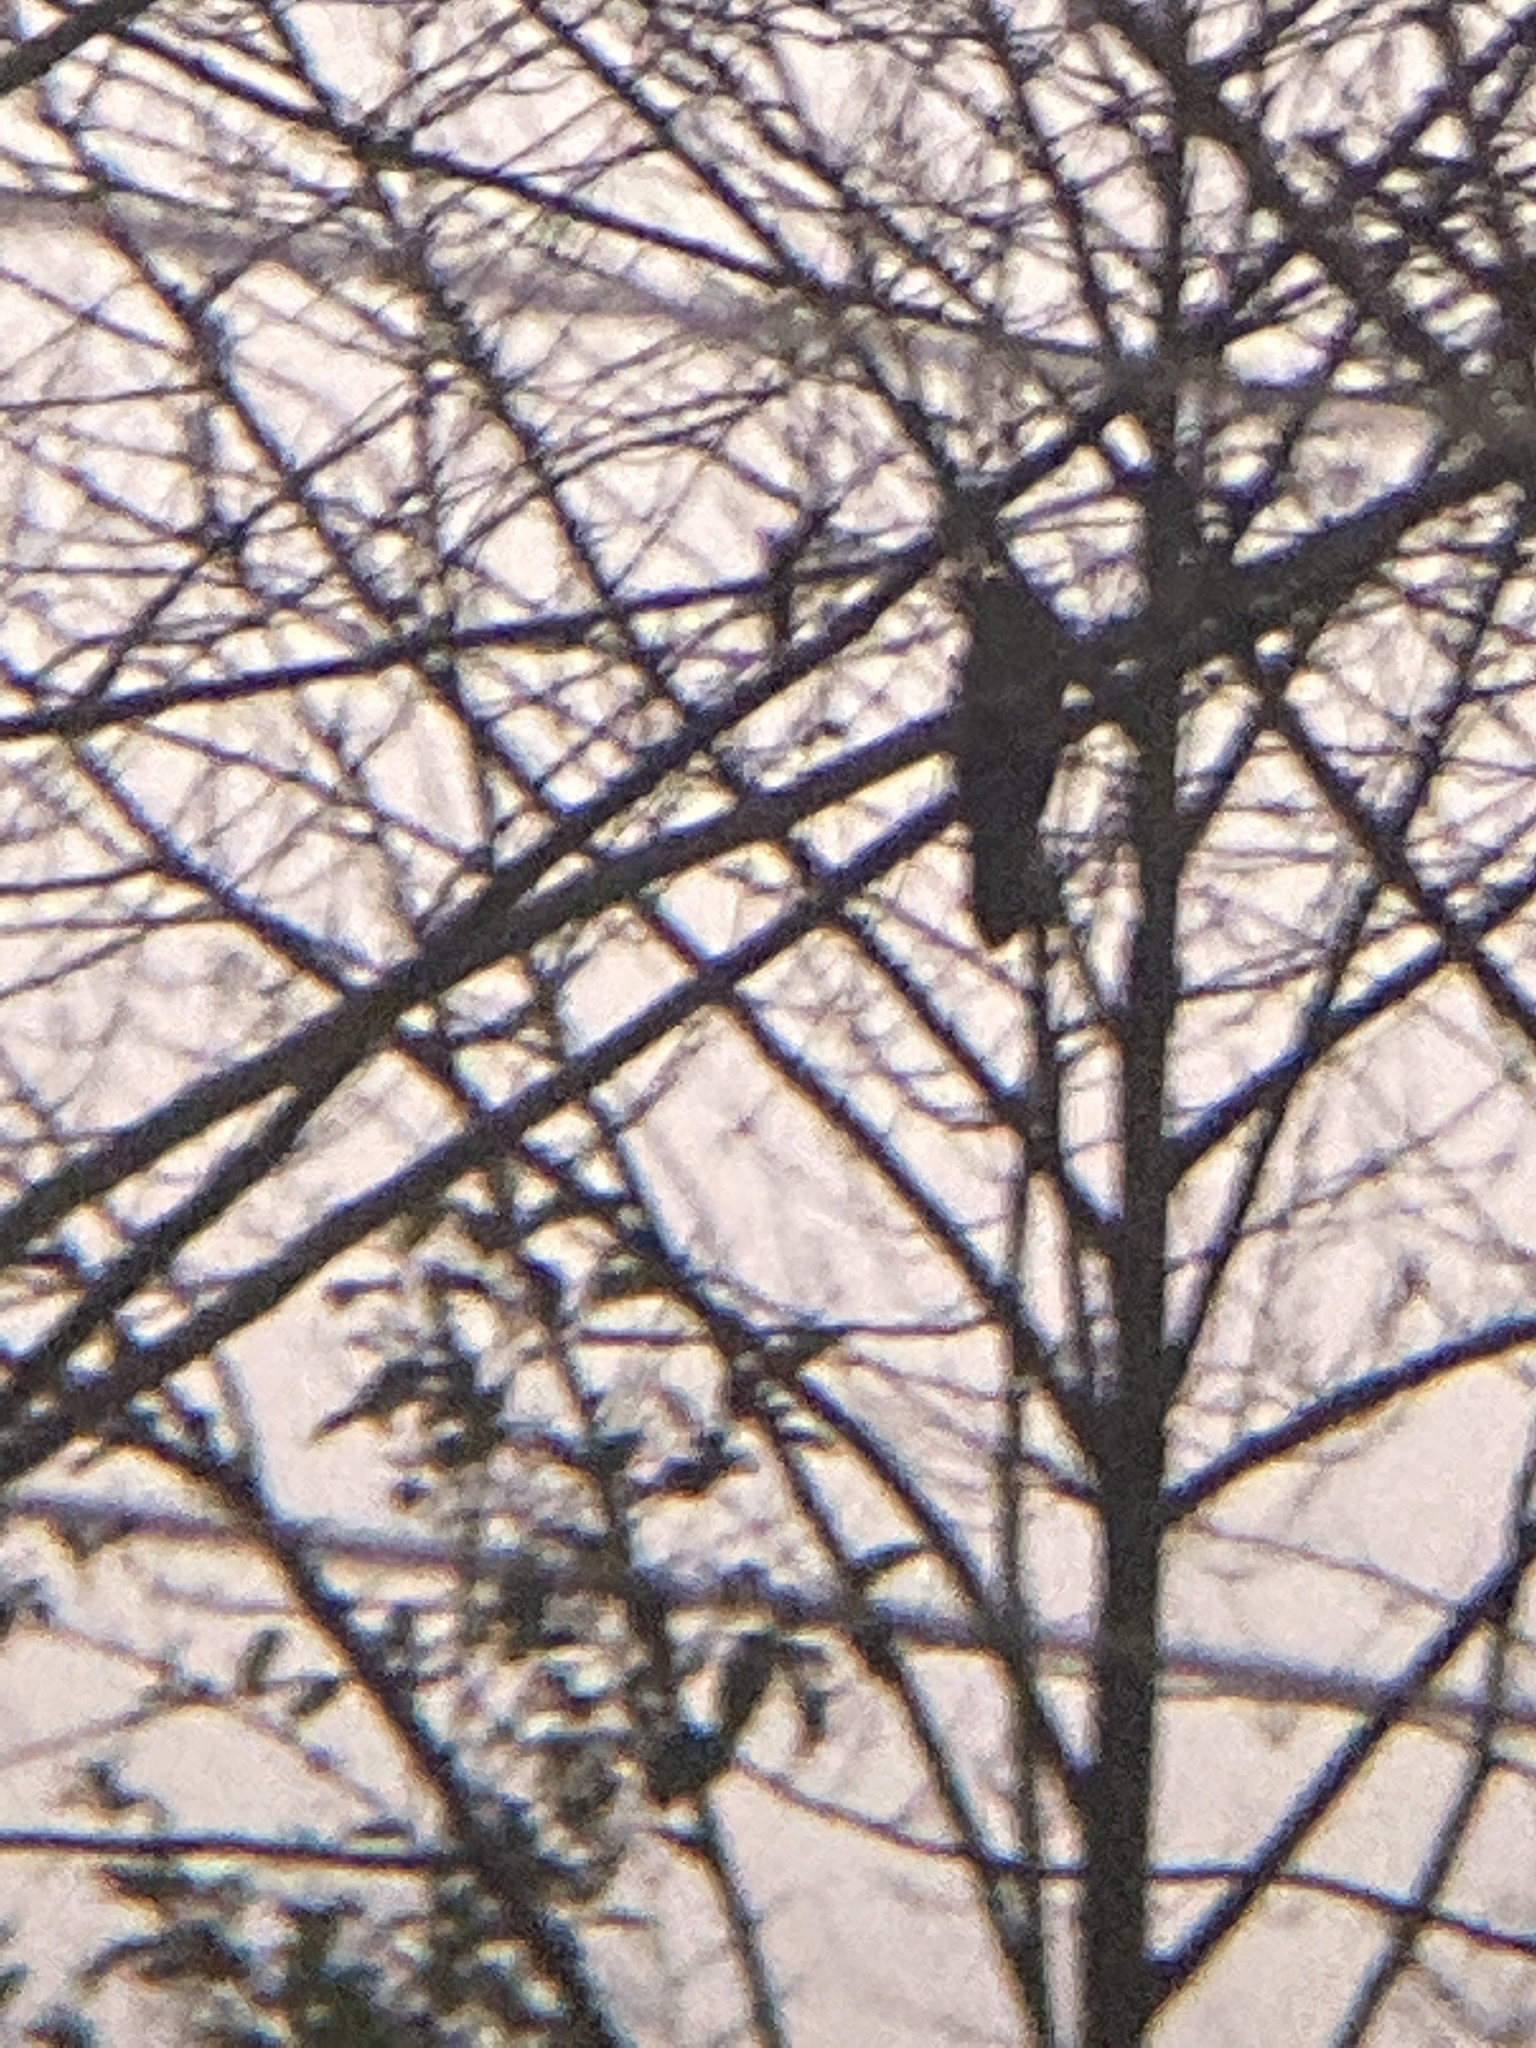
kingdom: Animalia
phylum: Chordata
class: Aves
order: Cuculiformes
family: Cuculidae
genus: Cuculus
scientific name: Cuculus sparverioides
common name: Large hawk cuckoo
